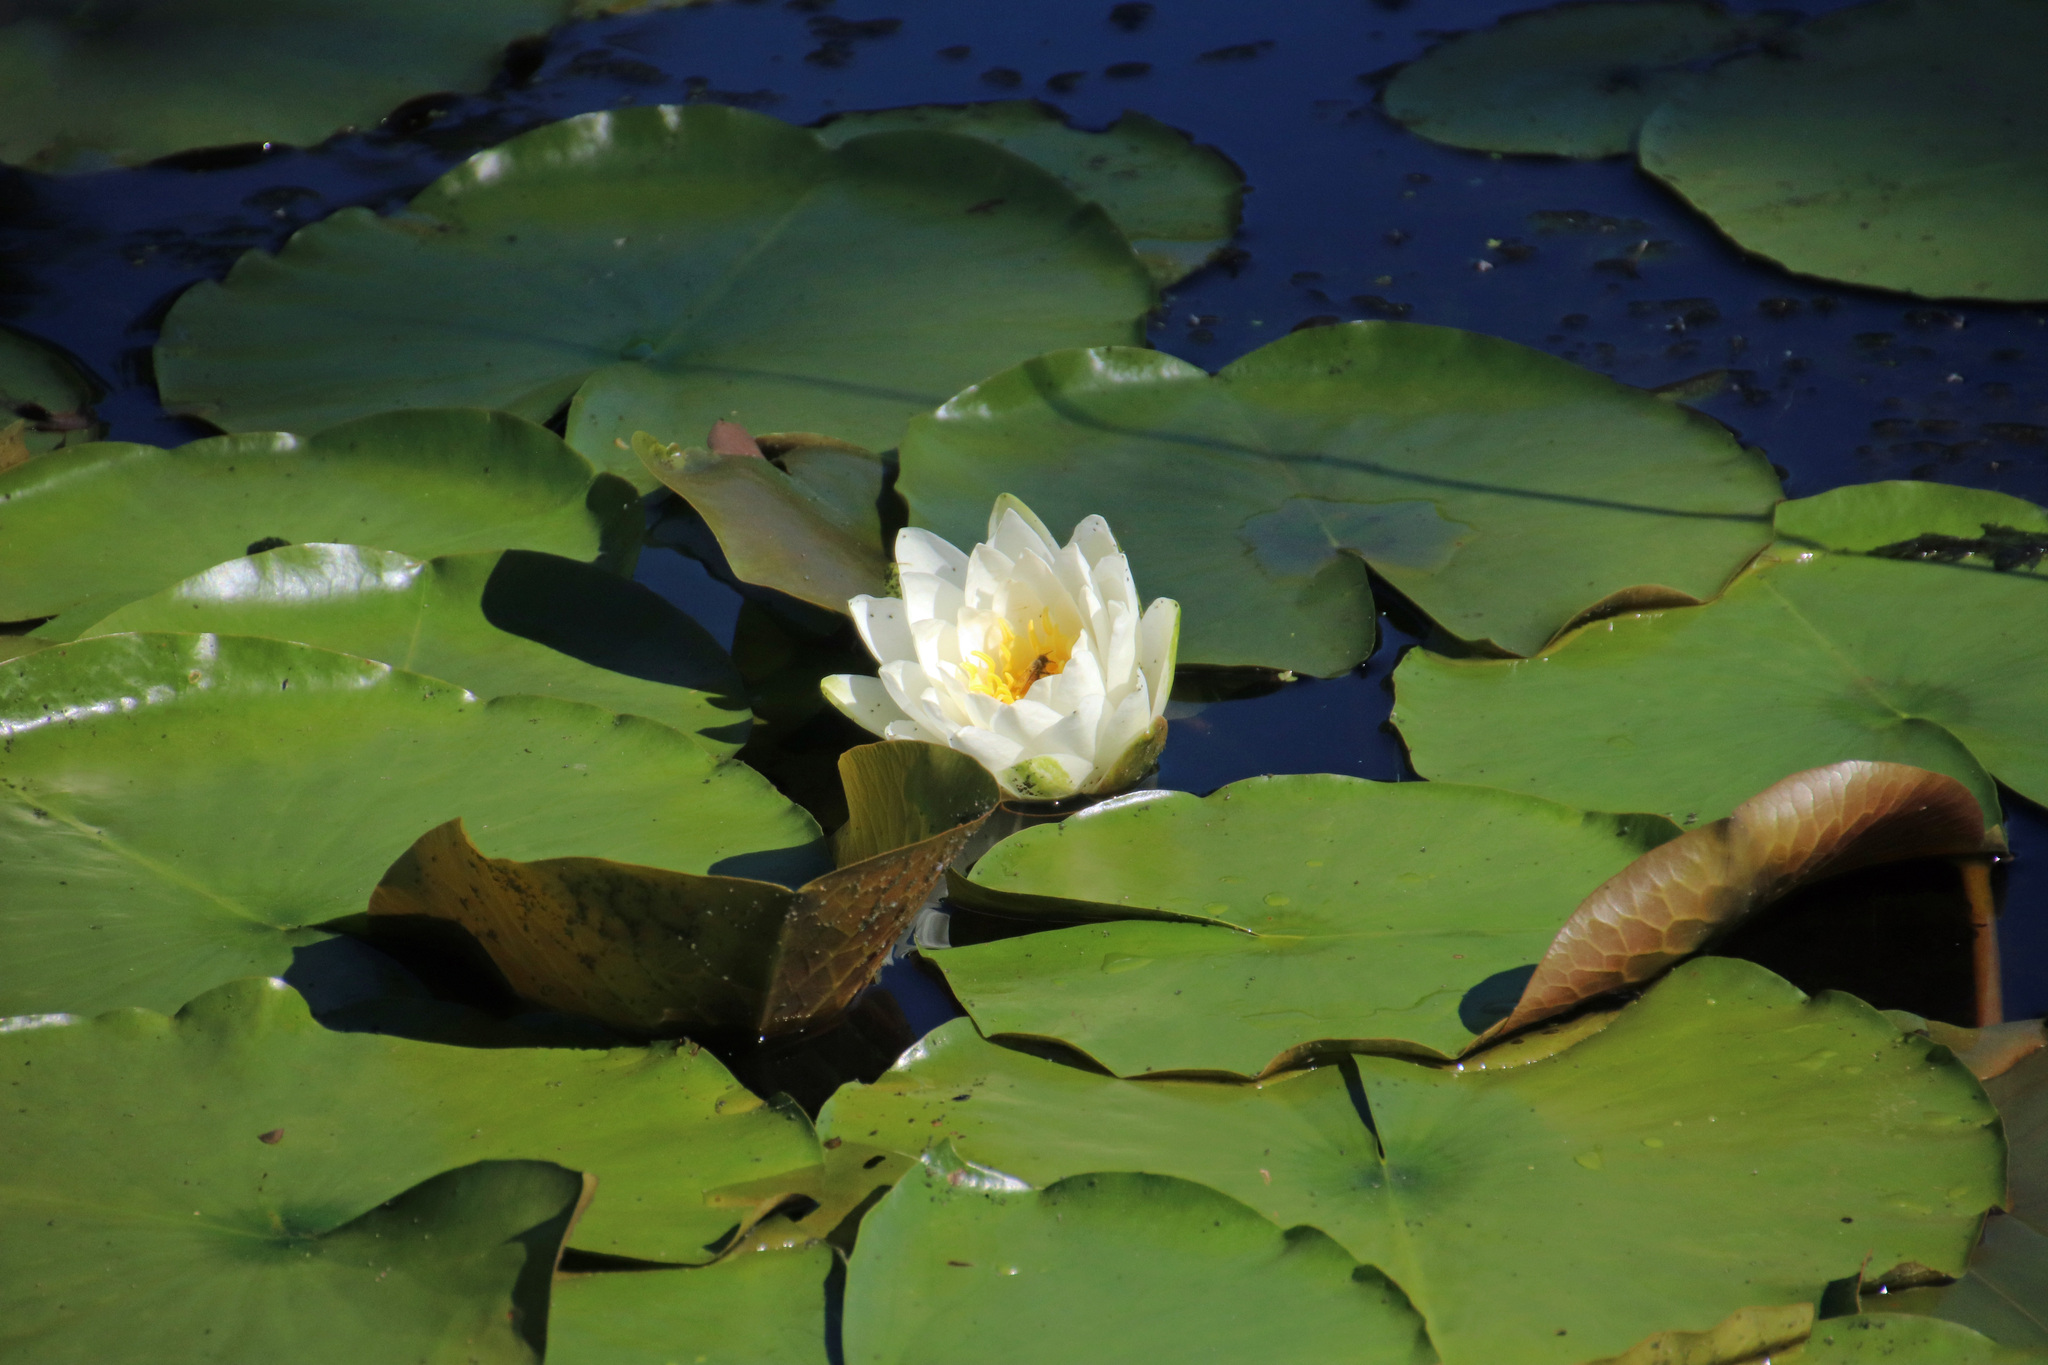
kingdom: Plantae
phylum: Tracheophyta
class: Magnoliopsida
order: Nymphaeales
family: Nymphaeaceae
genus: Nymphaea
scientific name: Nymphaea odorata
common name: Fragrant water-lily
